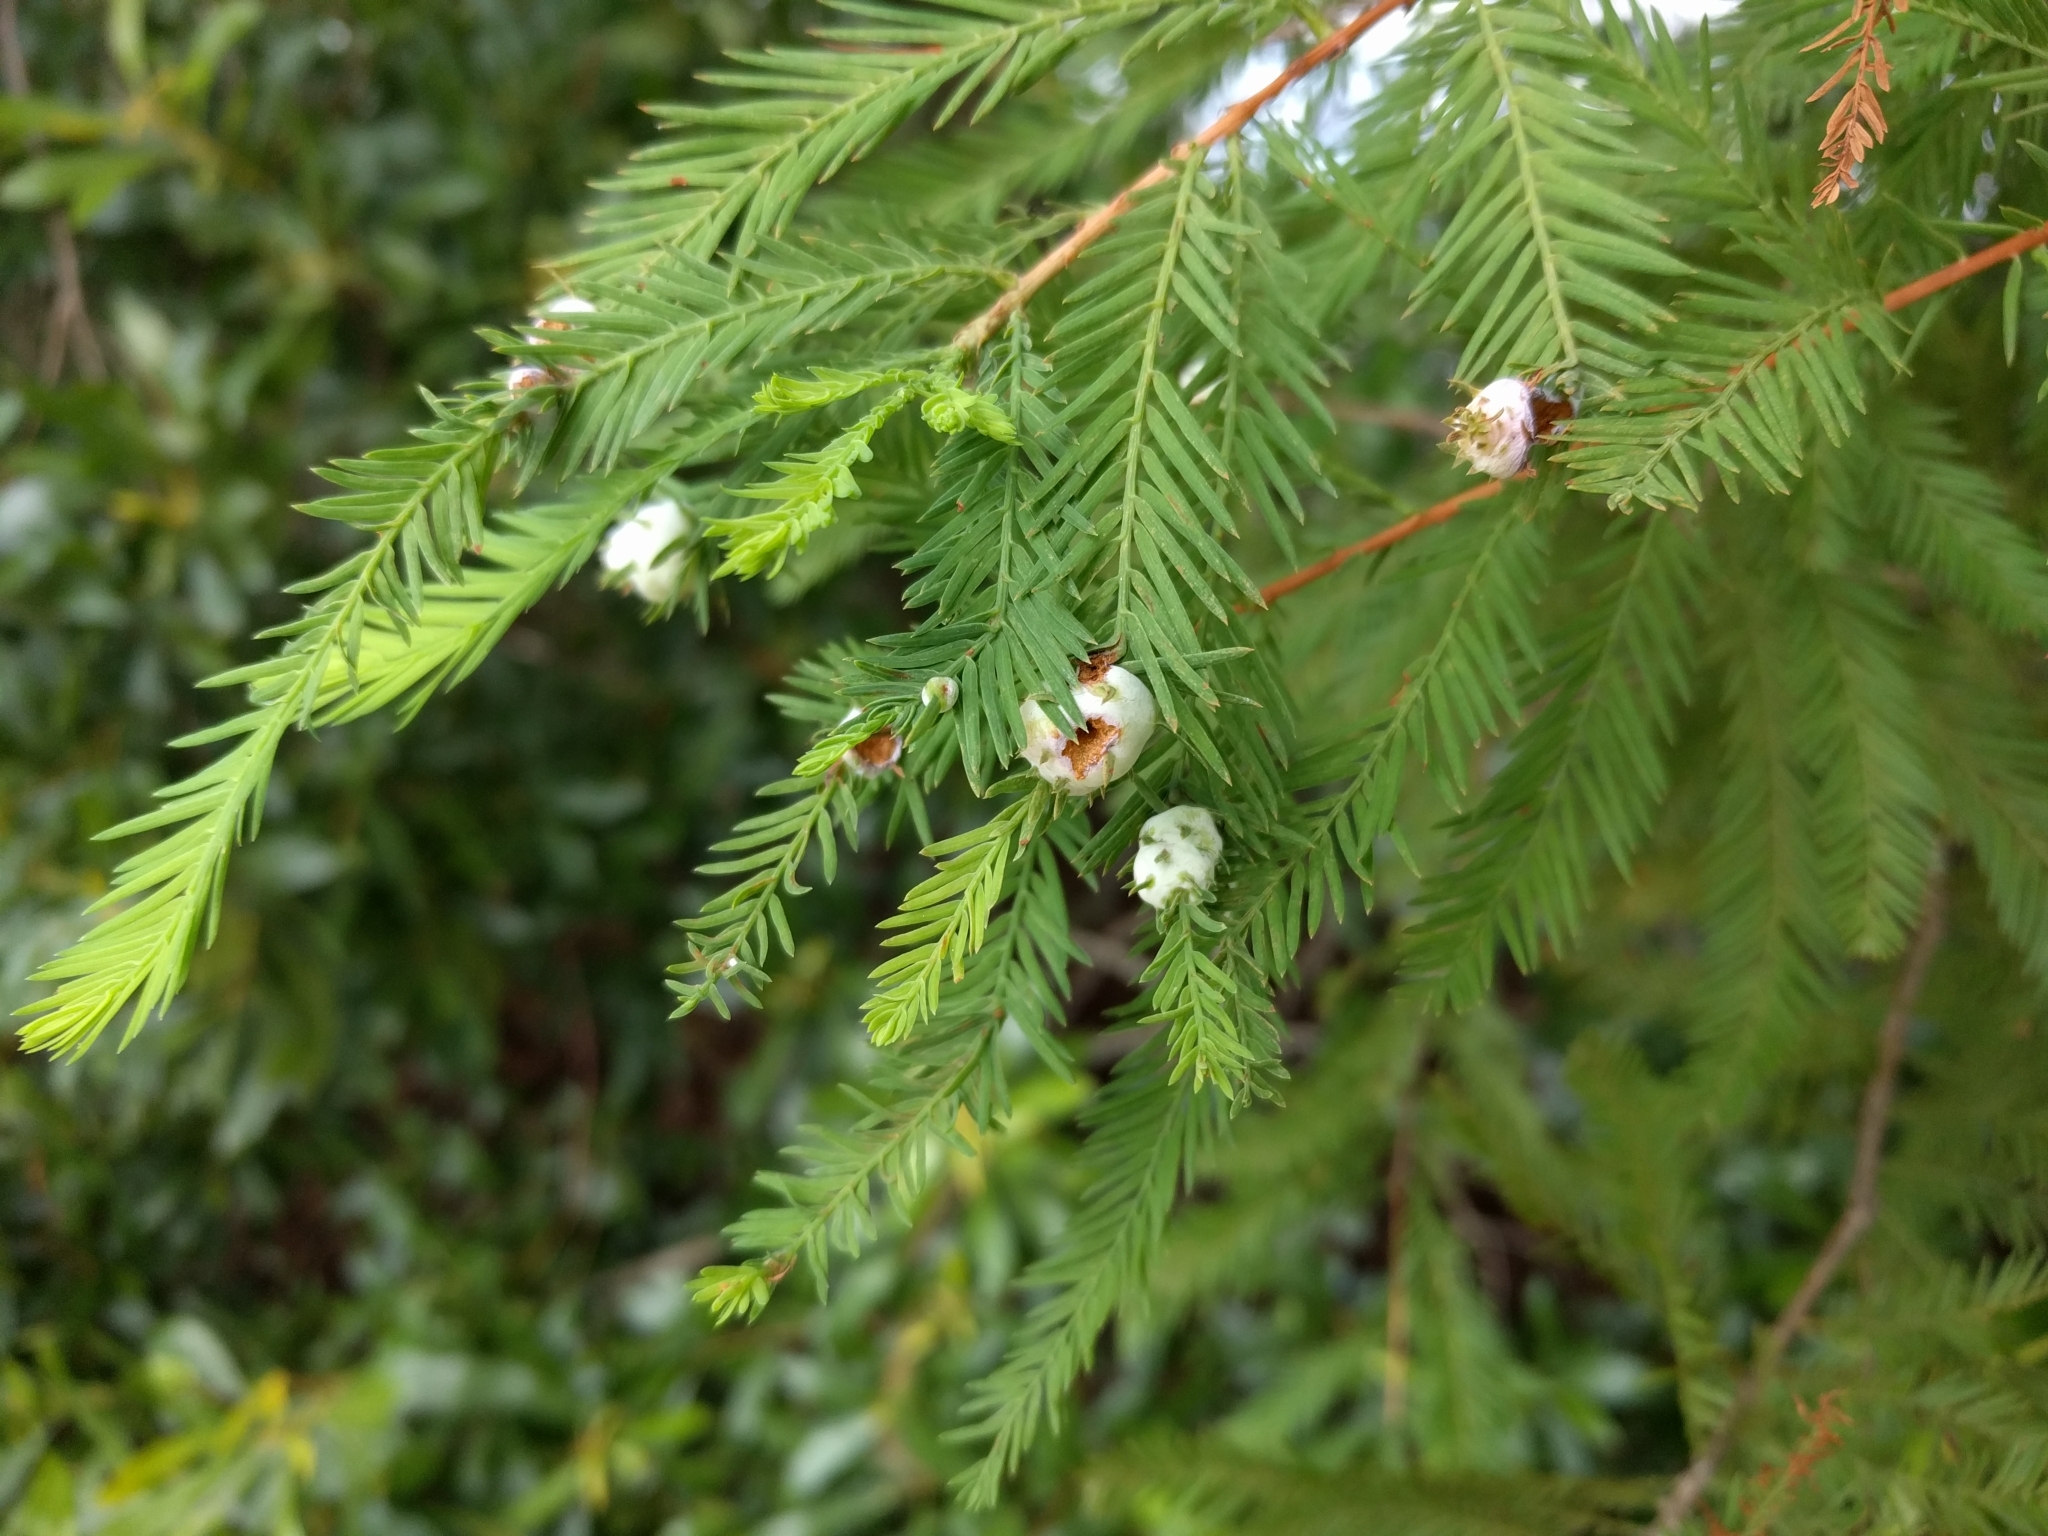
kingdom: Plantae
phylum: Tracheophyta
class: Pinopsida
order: Pinales
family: Cupressaceae
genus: Taxodium
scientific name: Taxodium distichum
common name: Bald cypress
